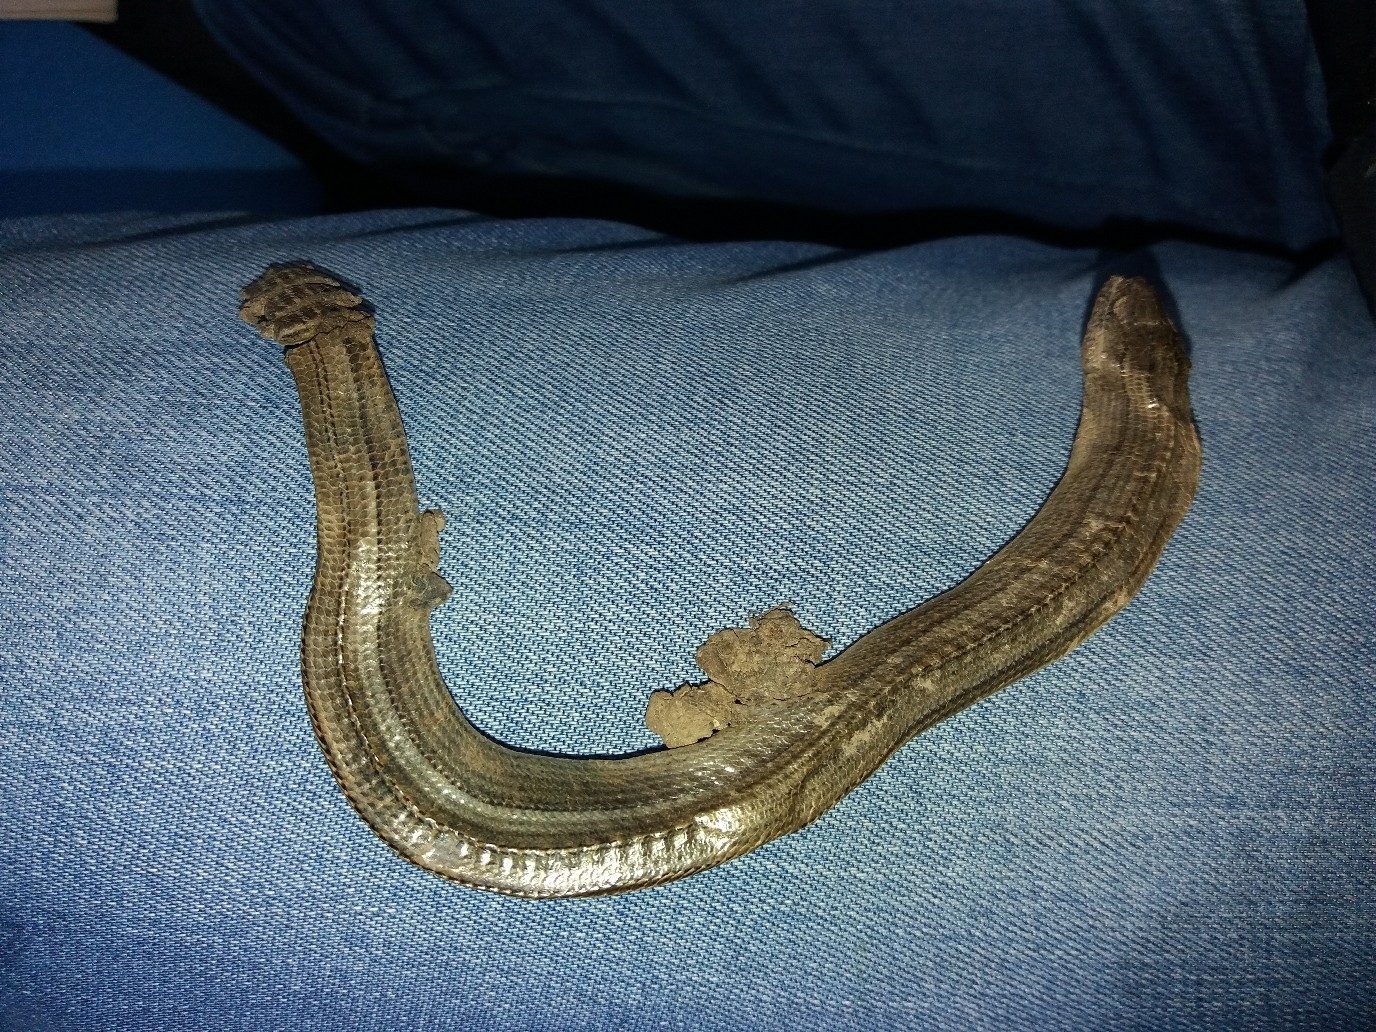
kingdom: Animalia
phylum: Chordata
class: Squamata
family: Anguidae
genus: Anguis
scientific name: Anguis colchica
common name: Slow worm
